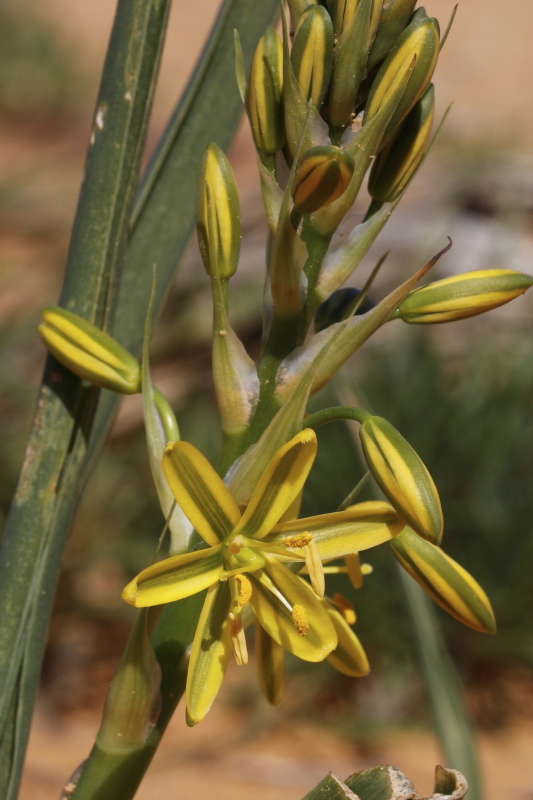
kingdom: Plantae
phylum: Tracheophyta
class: Liliopsida
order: Asparagales
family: Asparagaceae
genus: Albuca
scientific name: Albuca suaveolens
